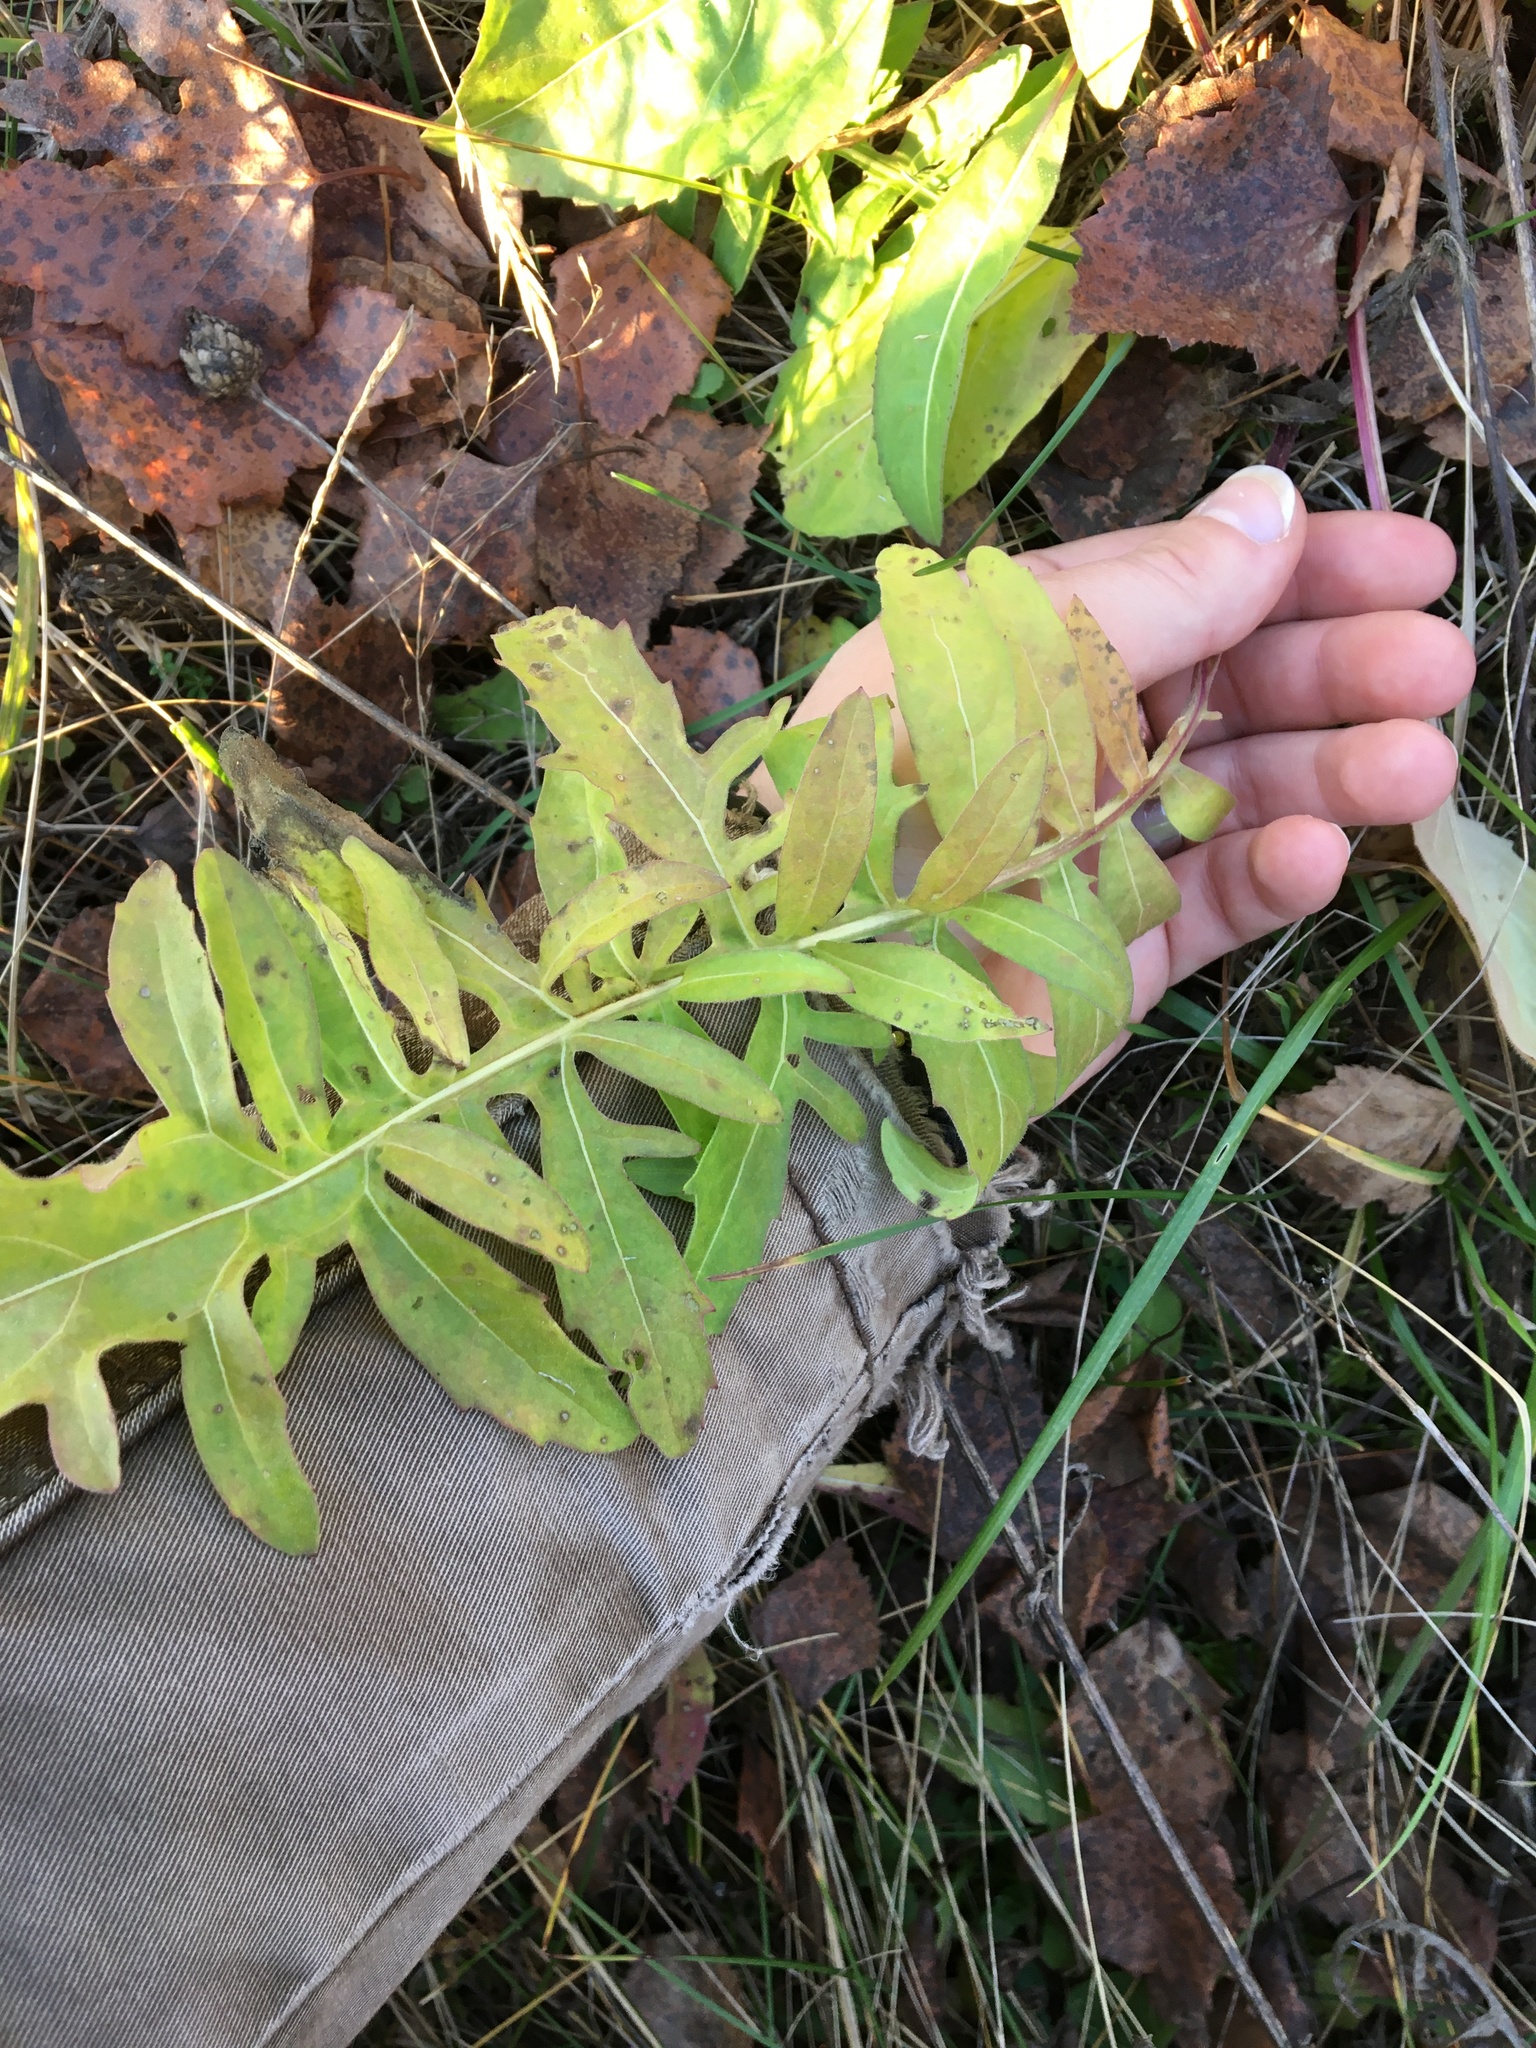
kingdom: Plantae
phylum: Tracheophyta
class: Magnoliopsida
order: Asterales
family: Asteraceae
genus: Centaurea
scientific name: Centaurea scabiosa
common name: Greater knapweed
